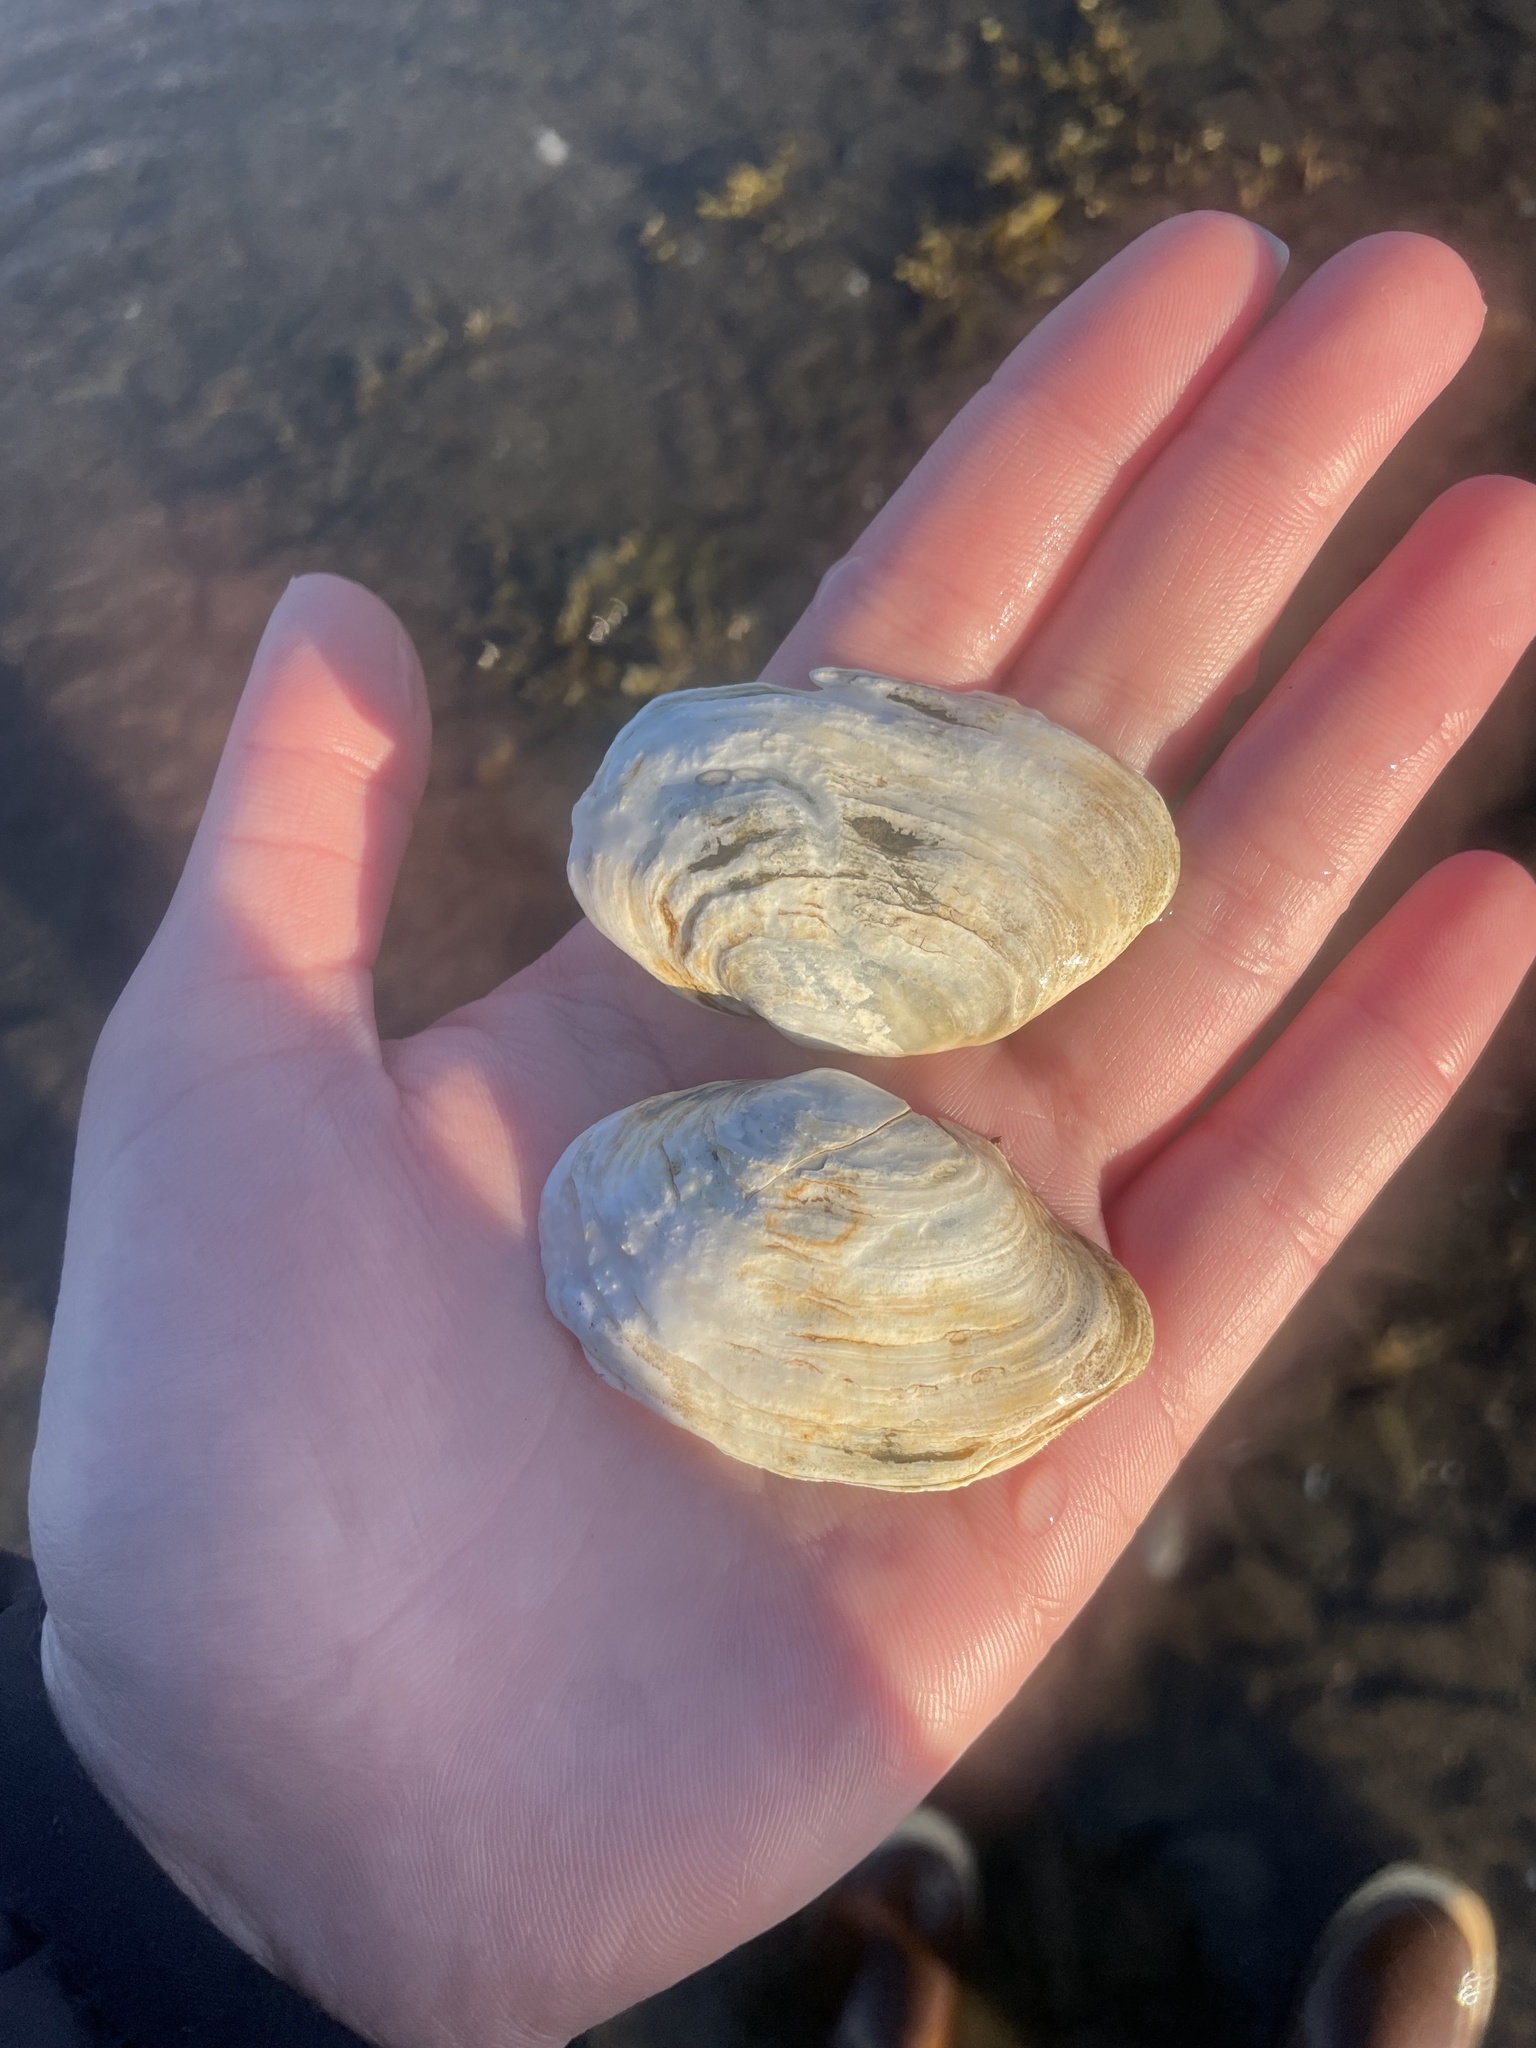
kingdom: Animalia
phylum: Mollusca
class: Bivalvia
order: Myida
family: Myidae
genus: Mya
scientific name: Mya arenaria
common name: Soft-shelled clam
